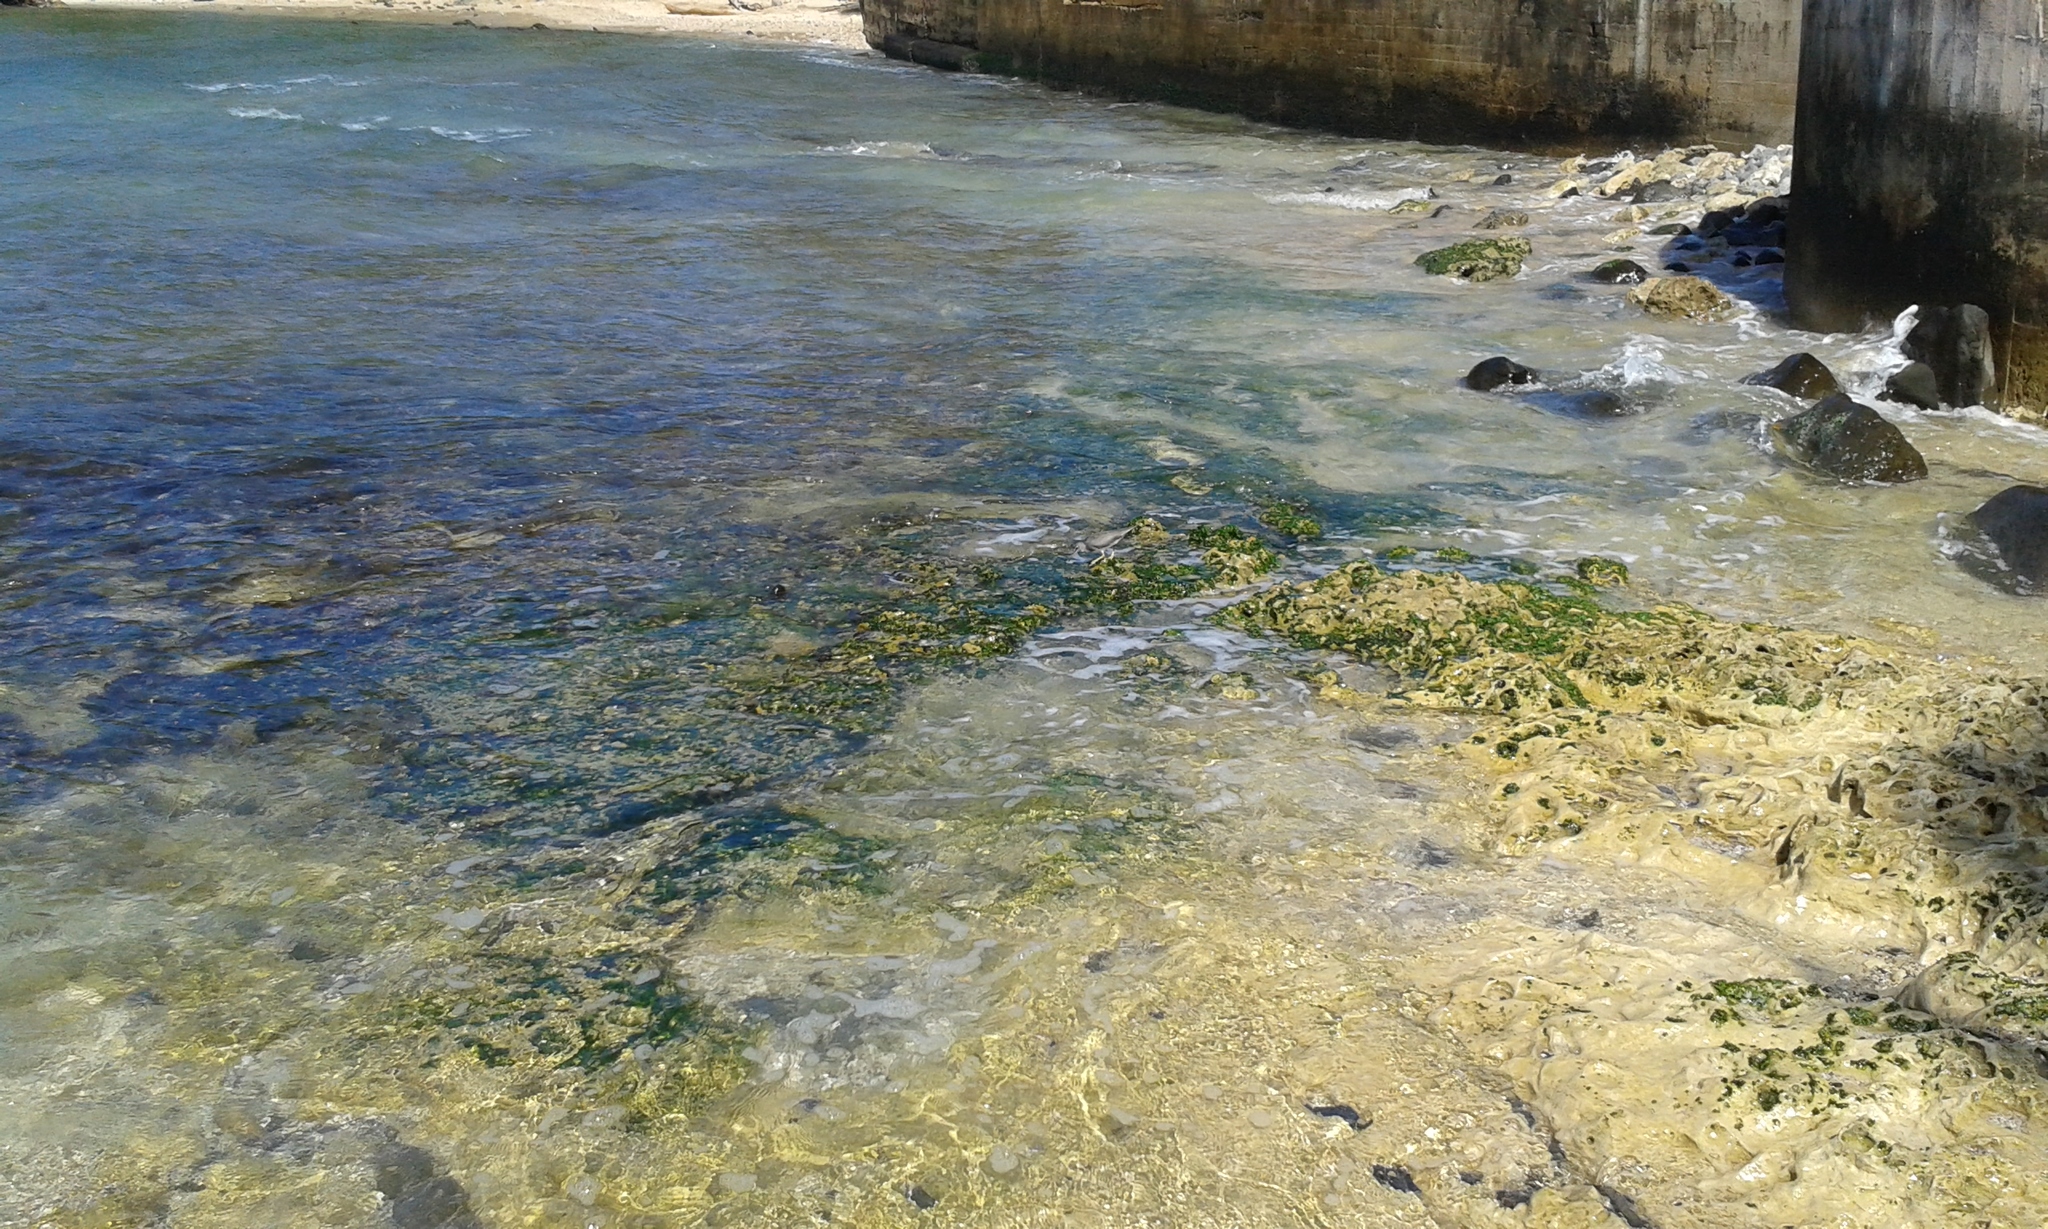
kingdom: Animalia
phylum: Chordata
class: Aves
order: Charadriiformes
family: Scolopacidae
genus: Tringa
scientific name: Tringa incana
